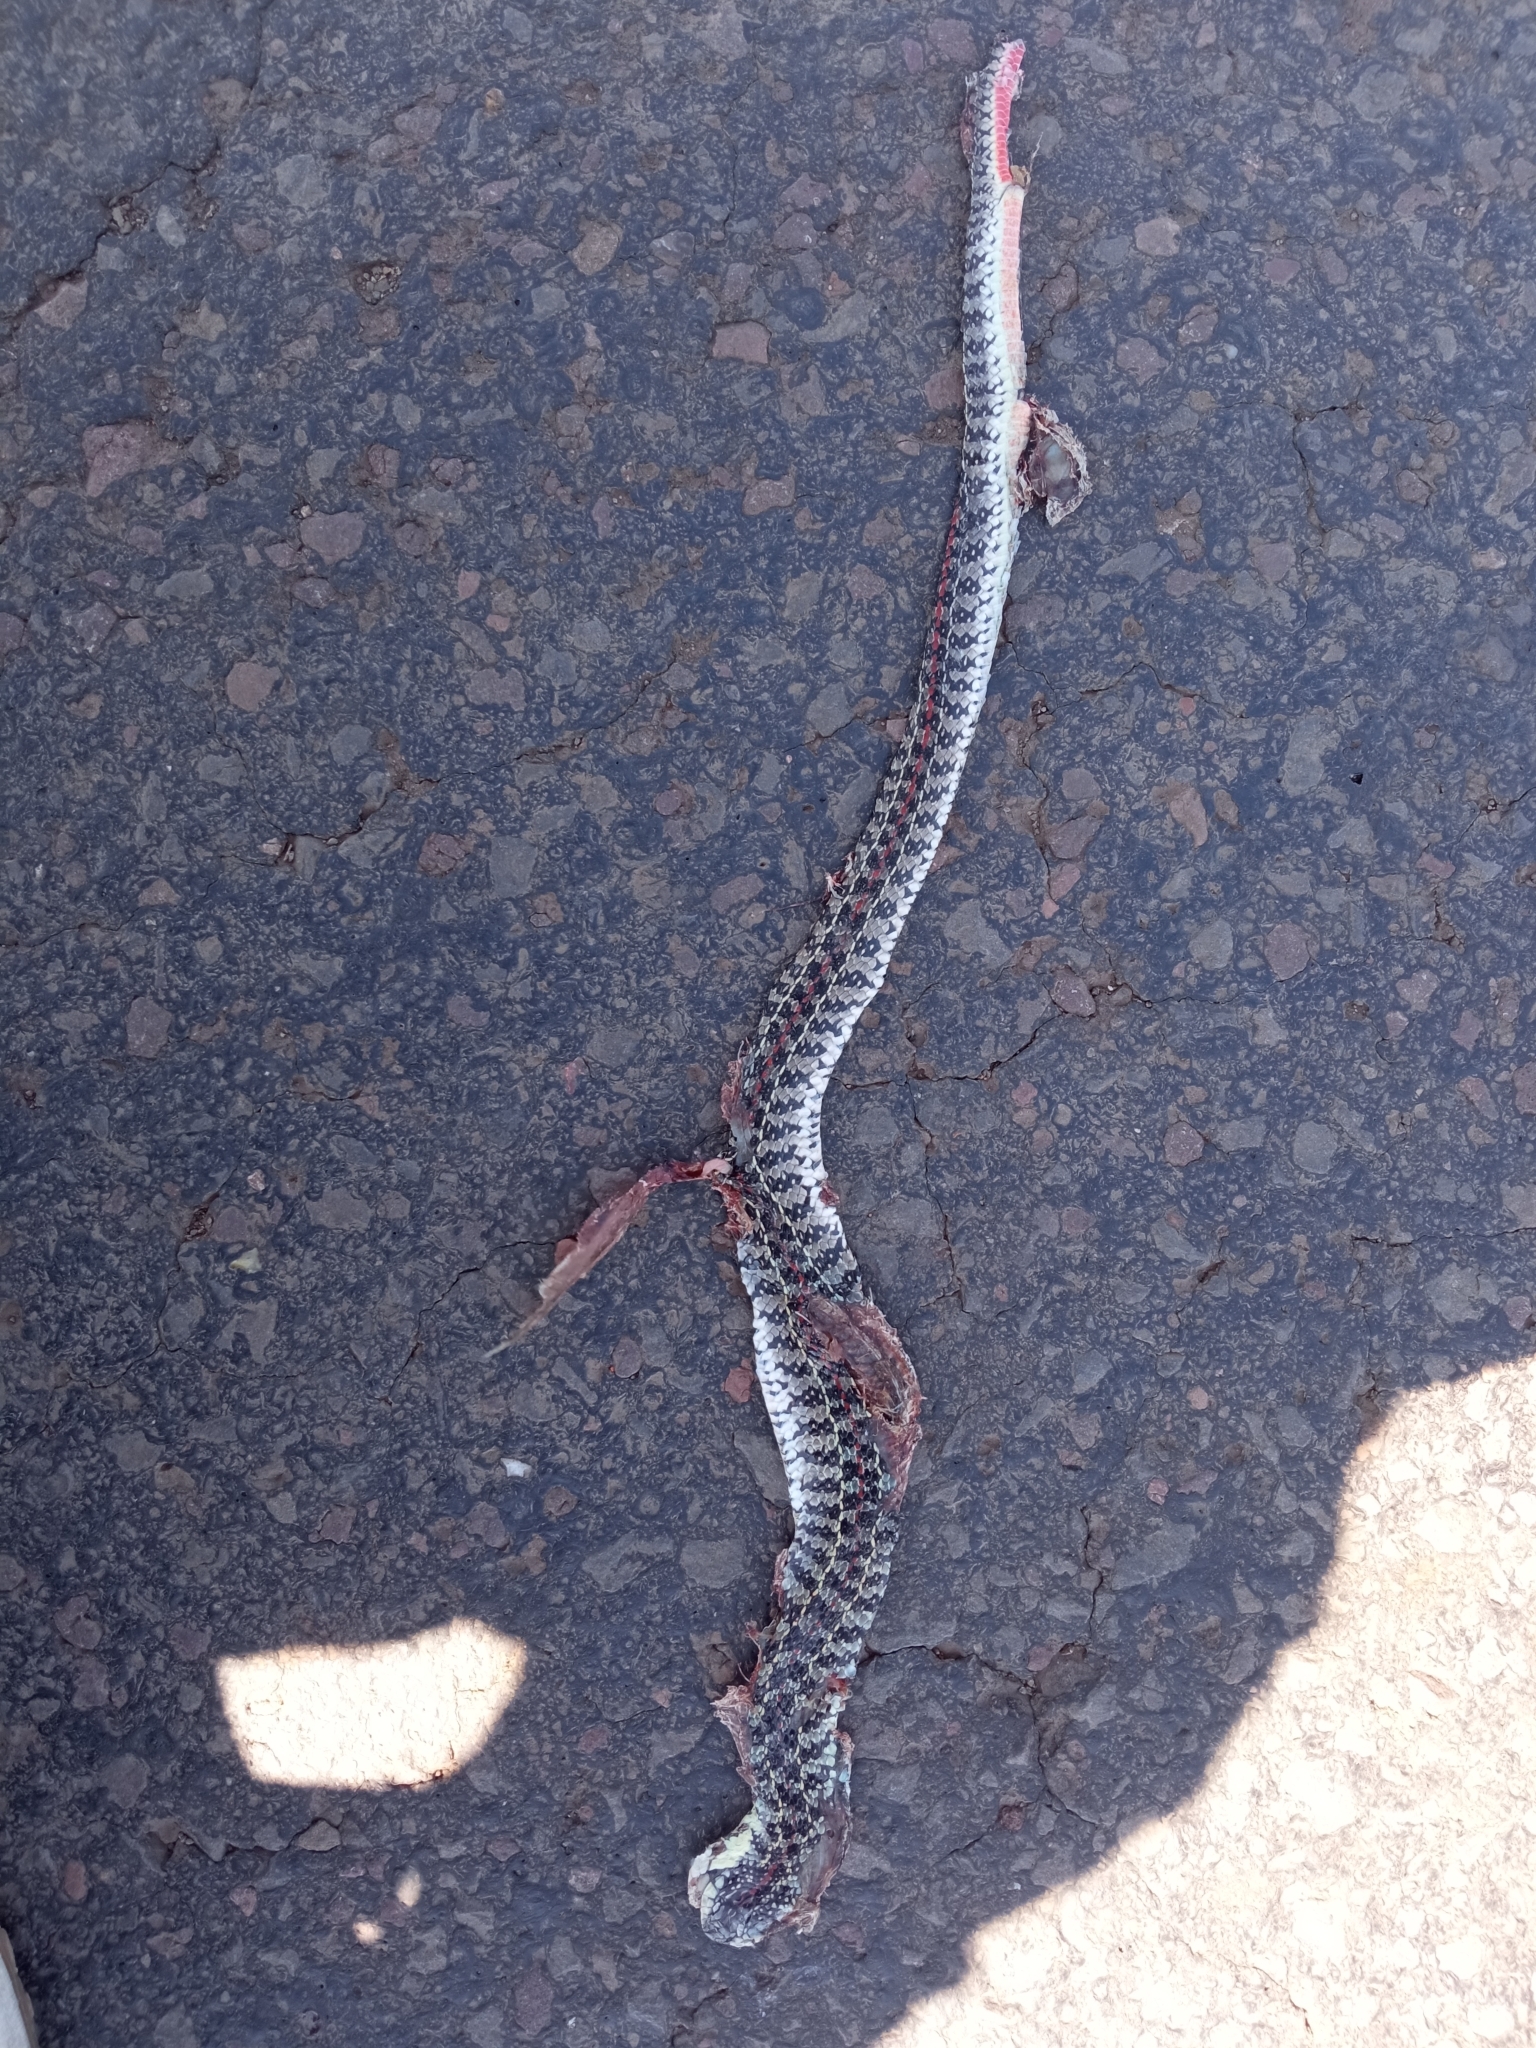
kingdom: Animalia
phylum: Chordata
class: Squamata
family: Colubridae
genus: Lygophis
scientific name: Lygophis anomalus
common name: English common name not available
